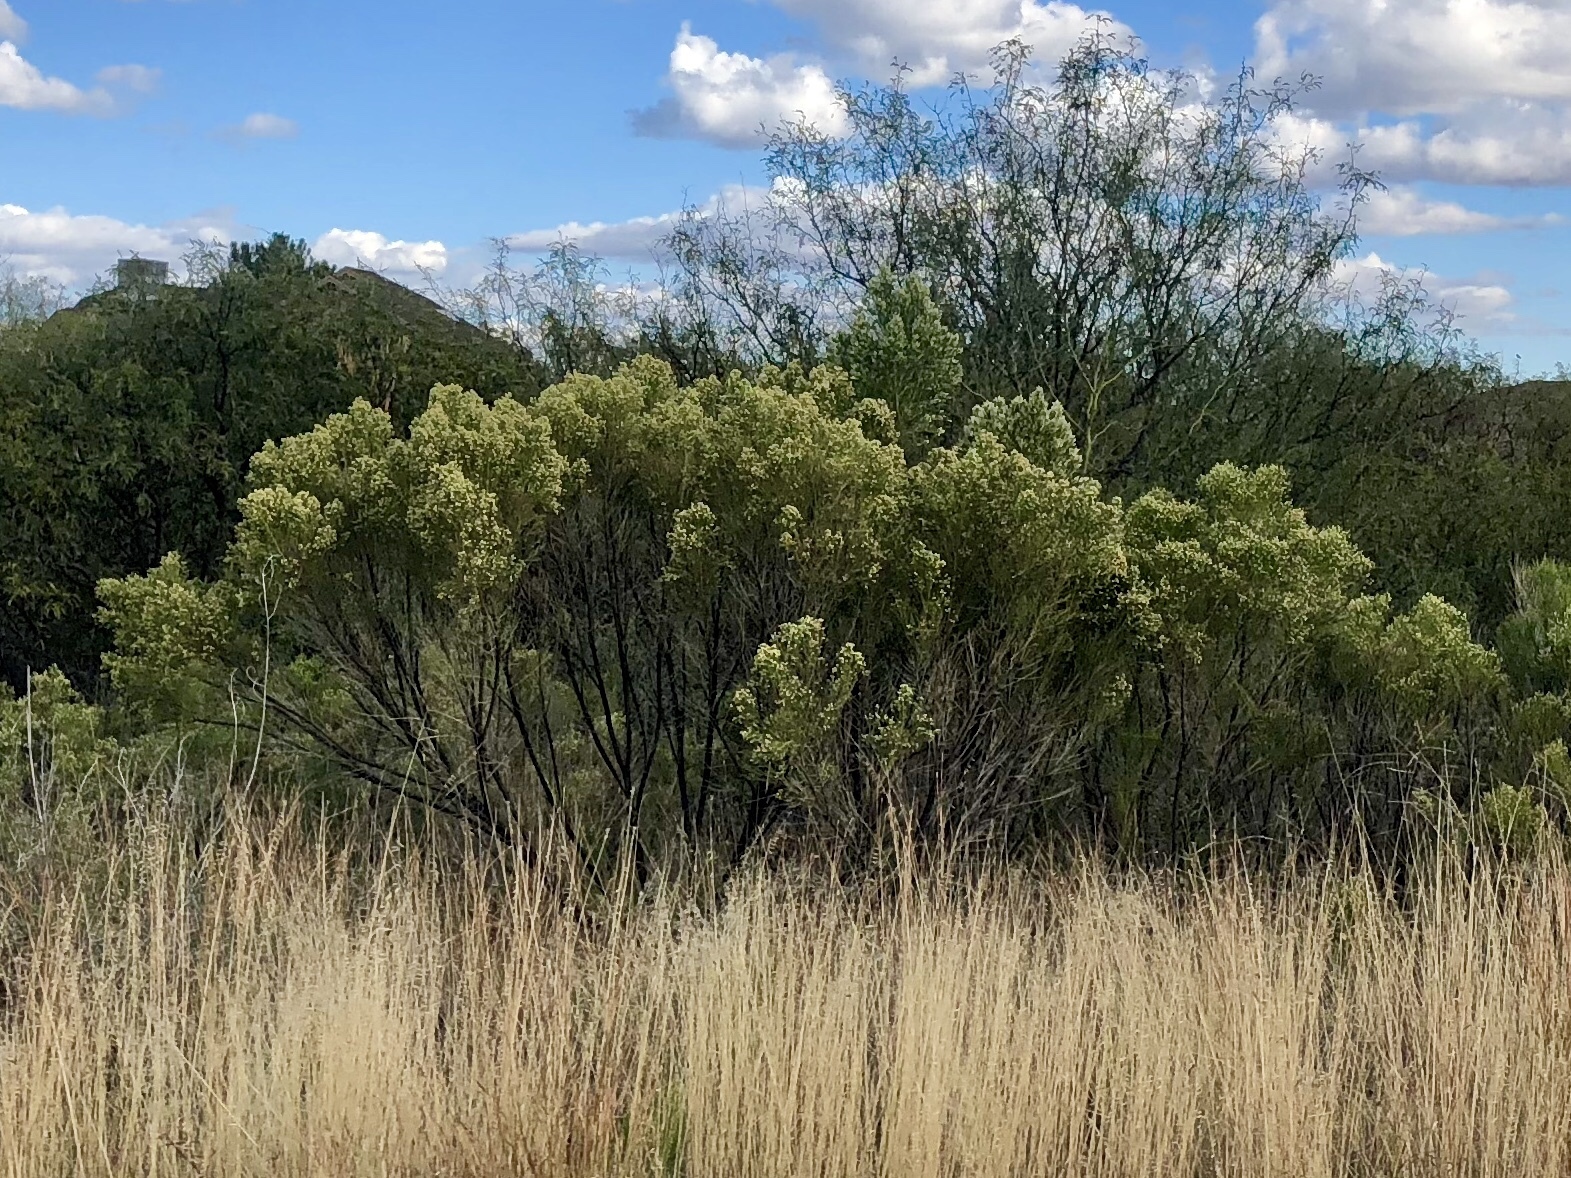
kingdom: Plantae
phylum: Tracheophyta
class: Magnoliopsida
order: Asterales
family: Asteraceae
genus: Baccharis
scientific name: Baccharis sarothroides
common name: Desert-broom
